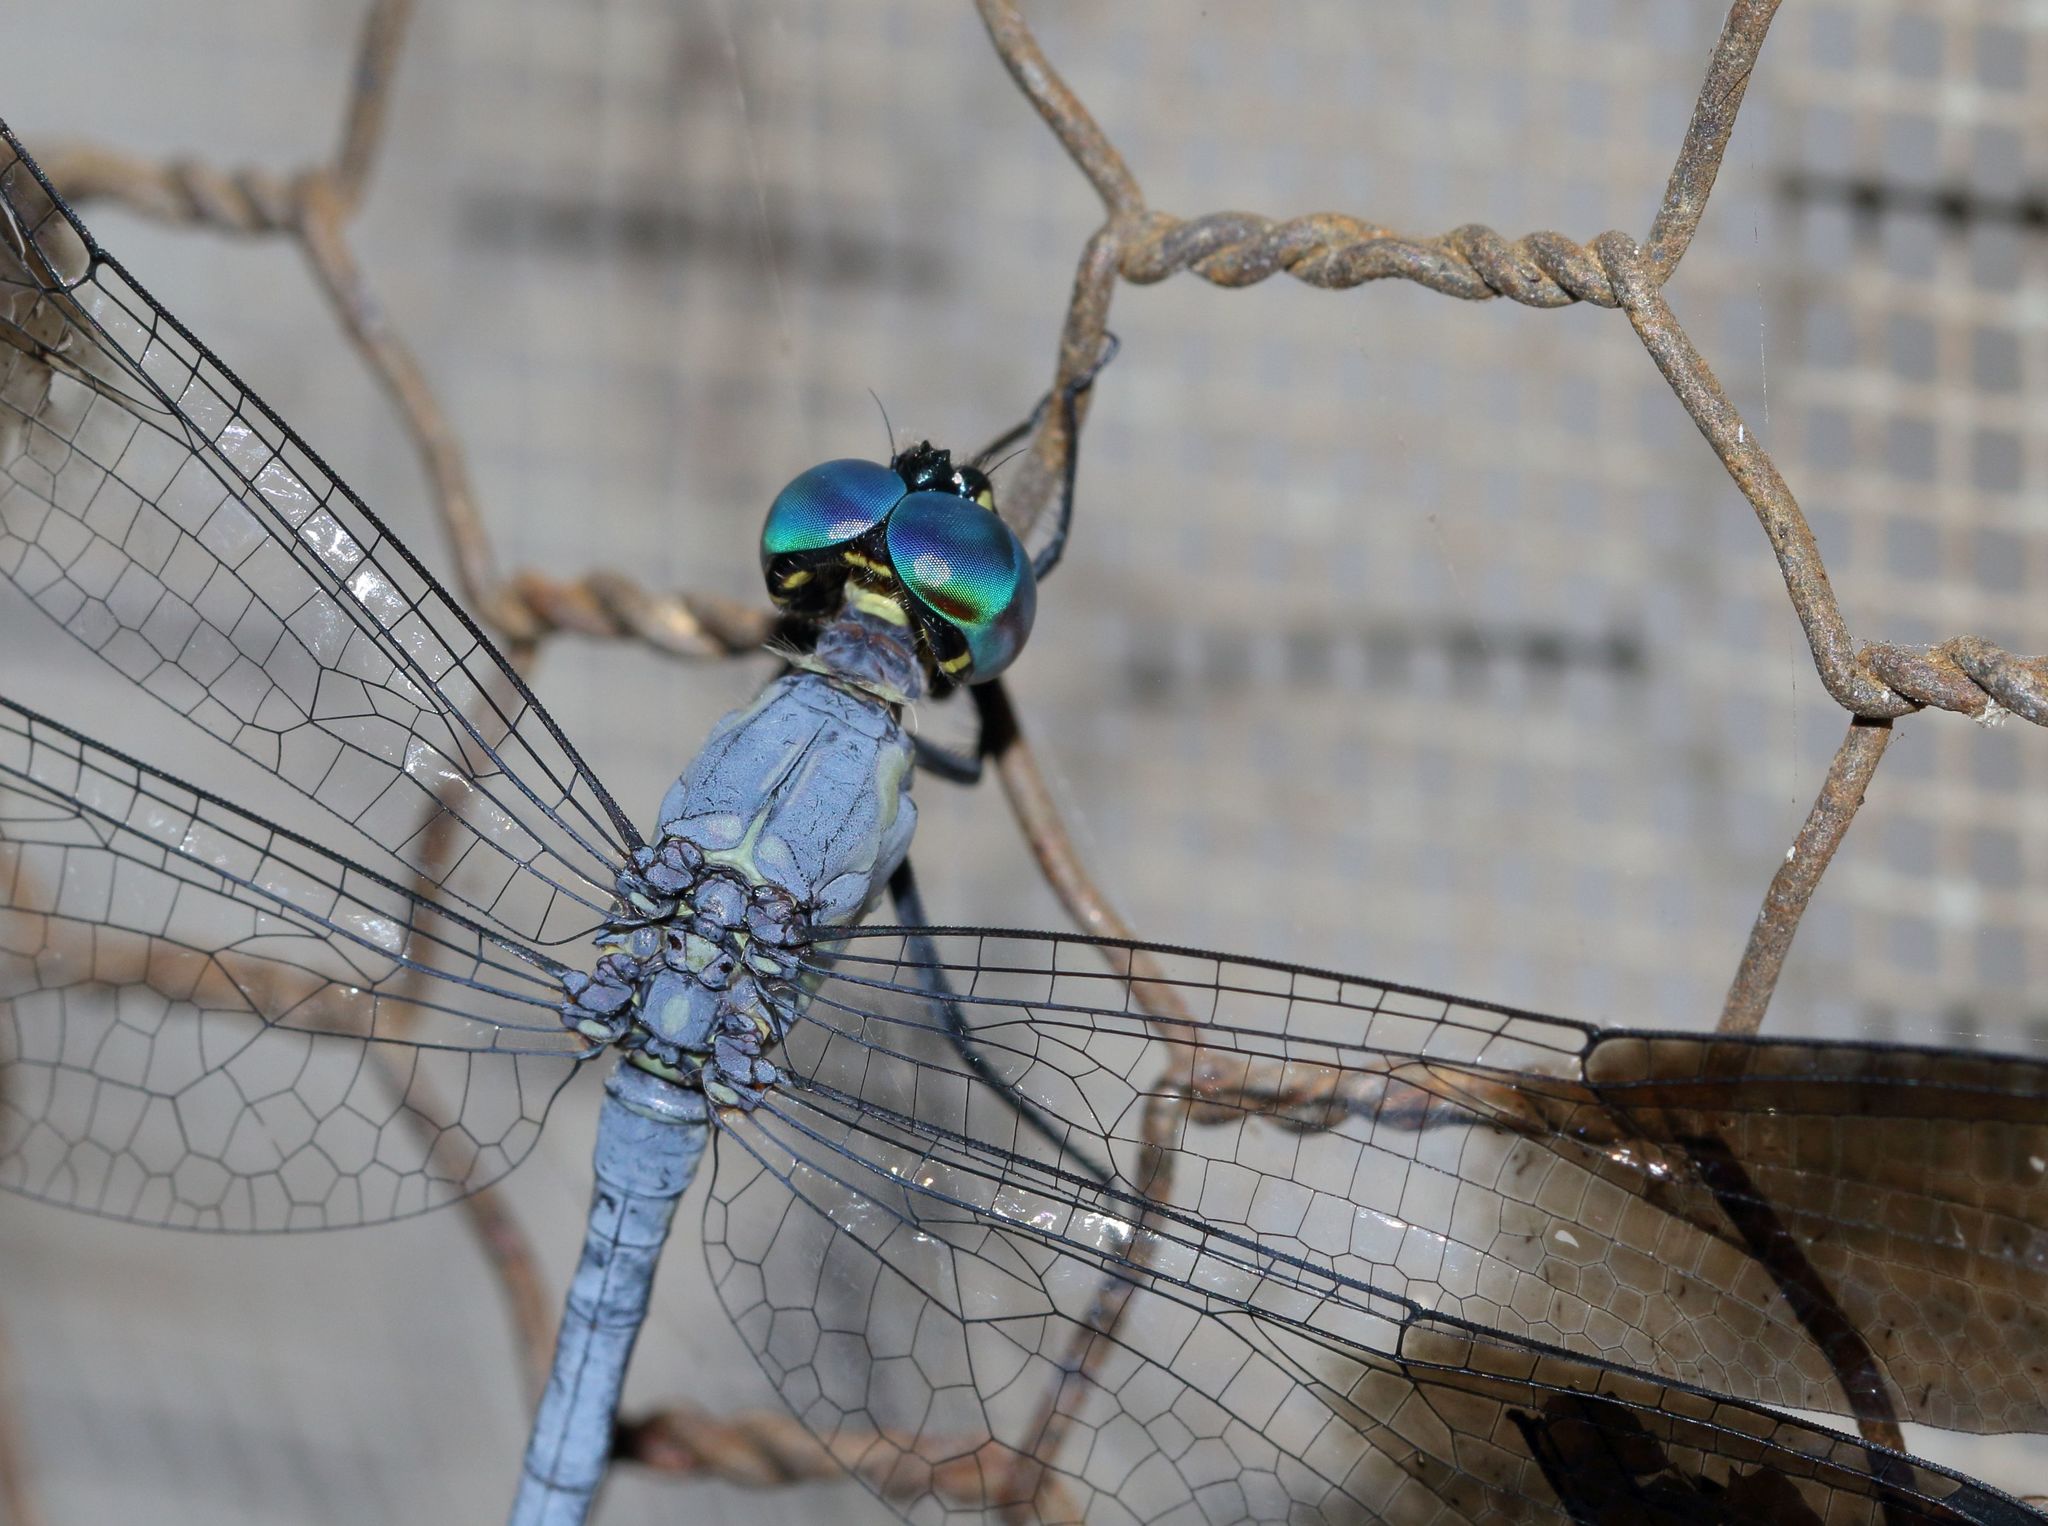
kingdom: Animalia
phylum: Arthropoda
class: Insecta
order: Odonata
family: Libellulidae
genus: Tetrathemis
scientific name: Tetrathemis polleni
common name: Black-splashed elf
